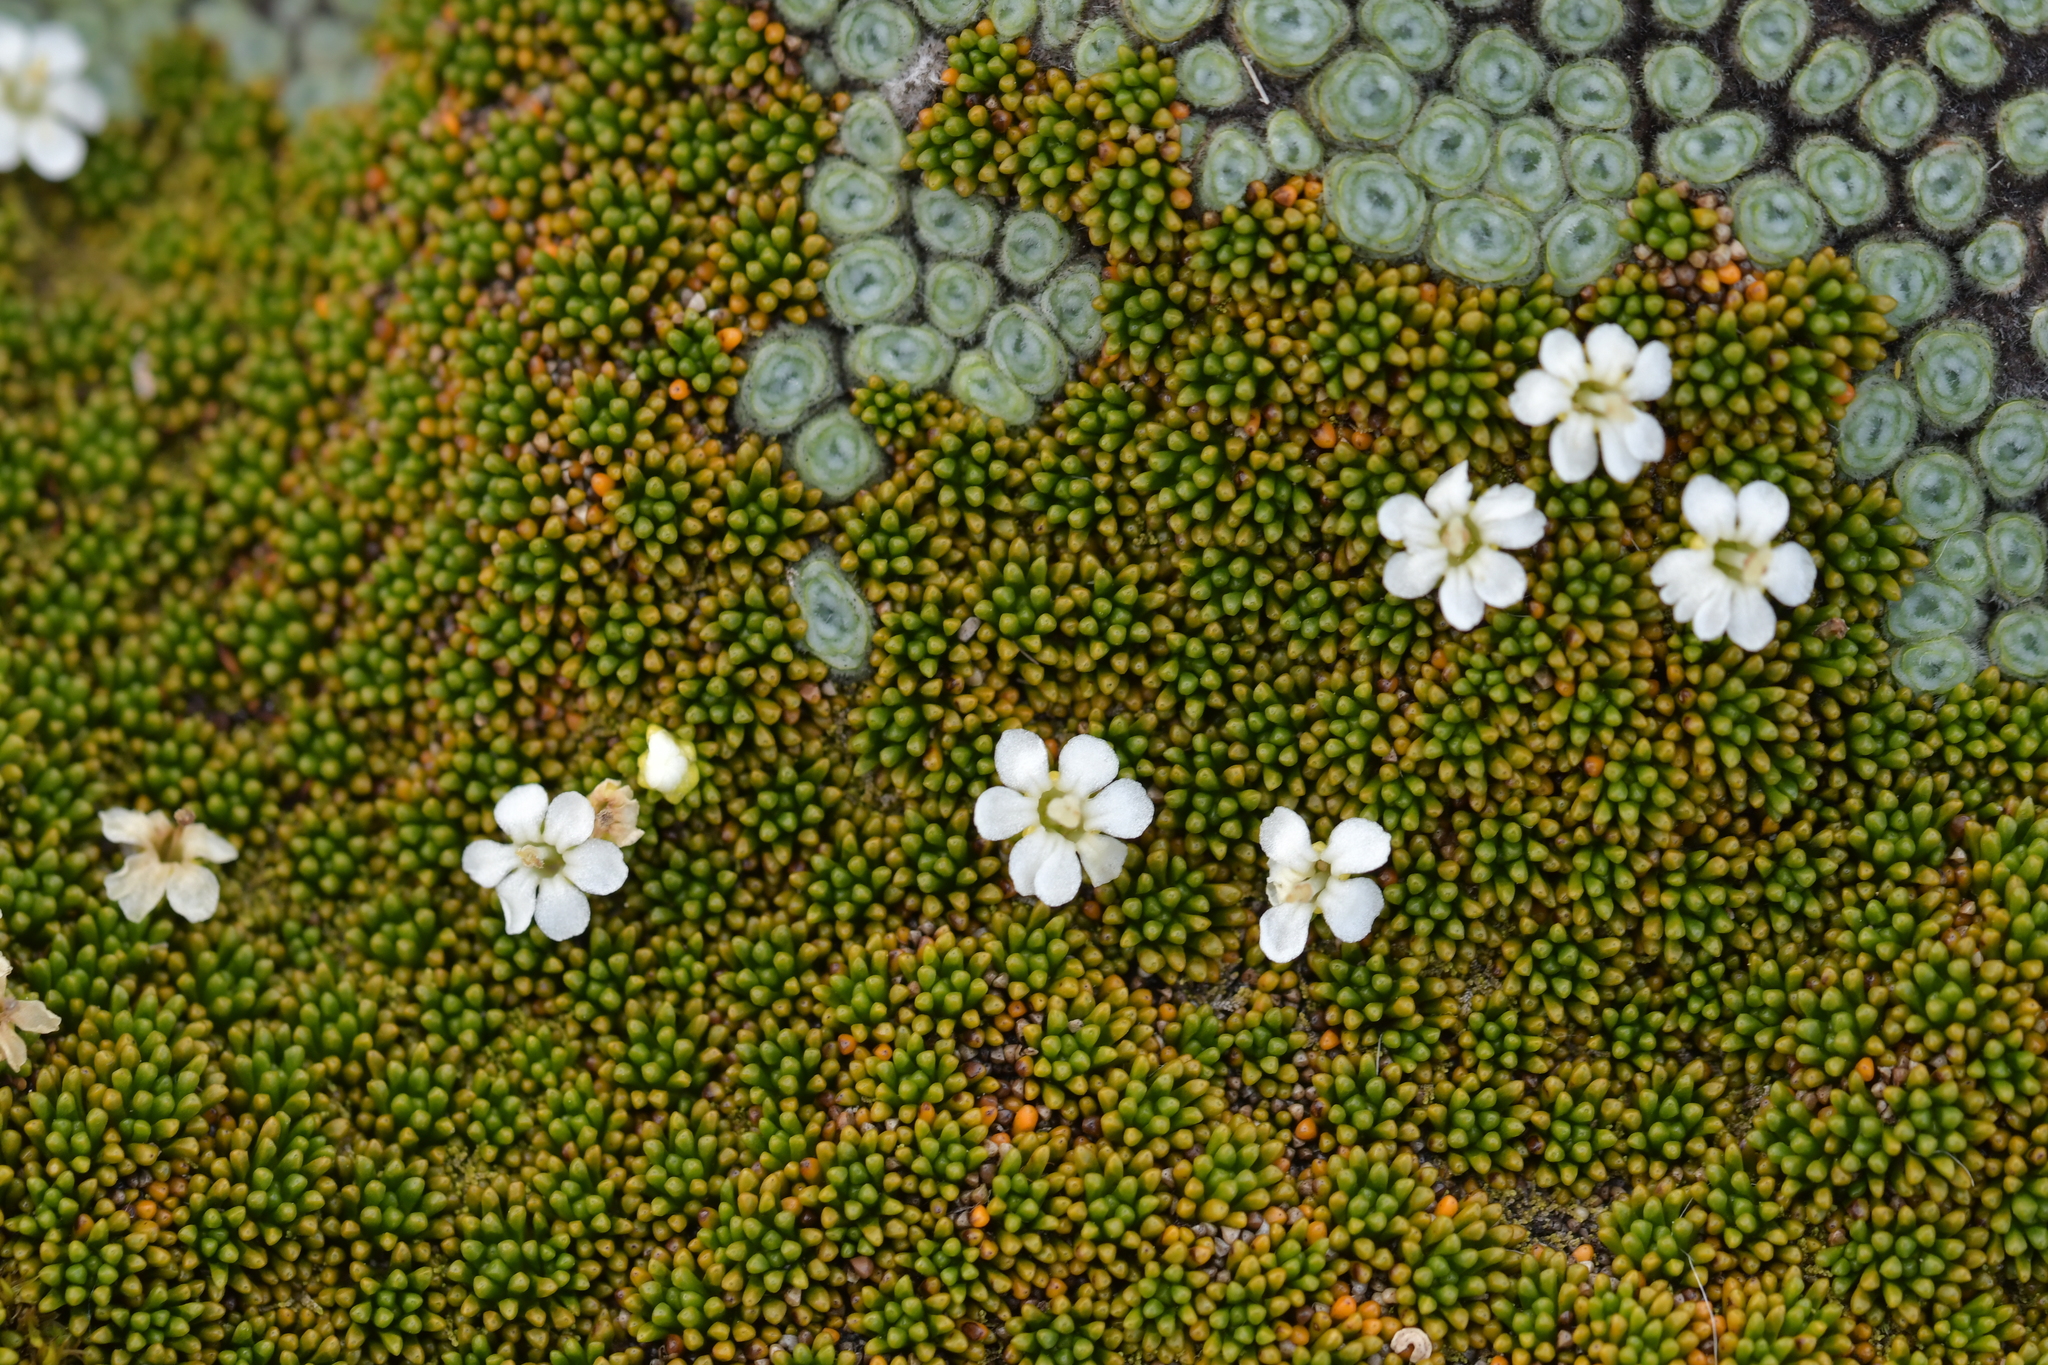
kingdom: Plantae
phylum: Tracheophyta
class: Magnoliopsida
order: Asterales
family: Stylidiaceae
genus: Phyllachne
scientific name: Phyllachne colensoi
